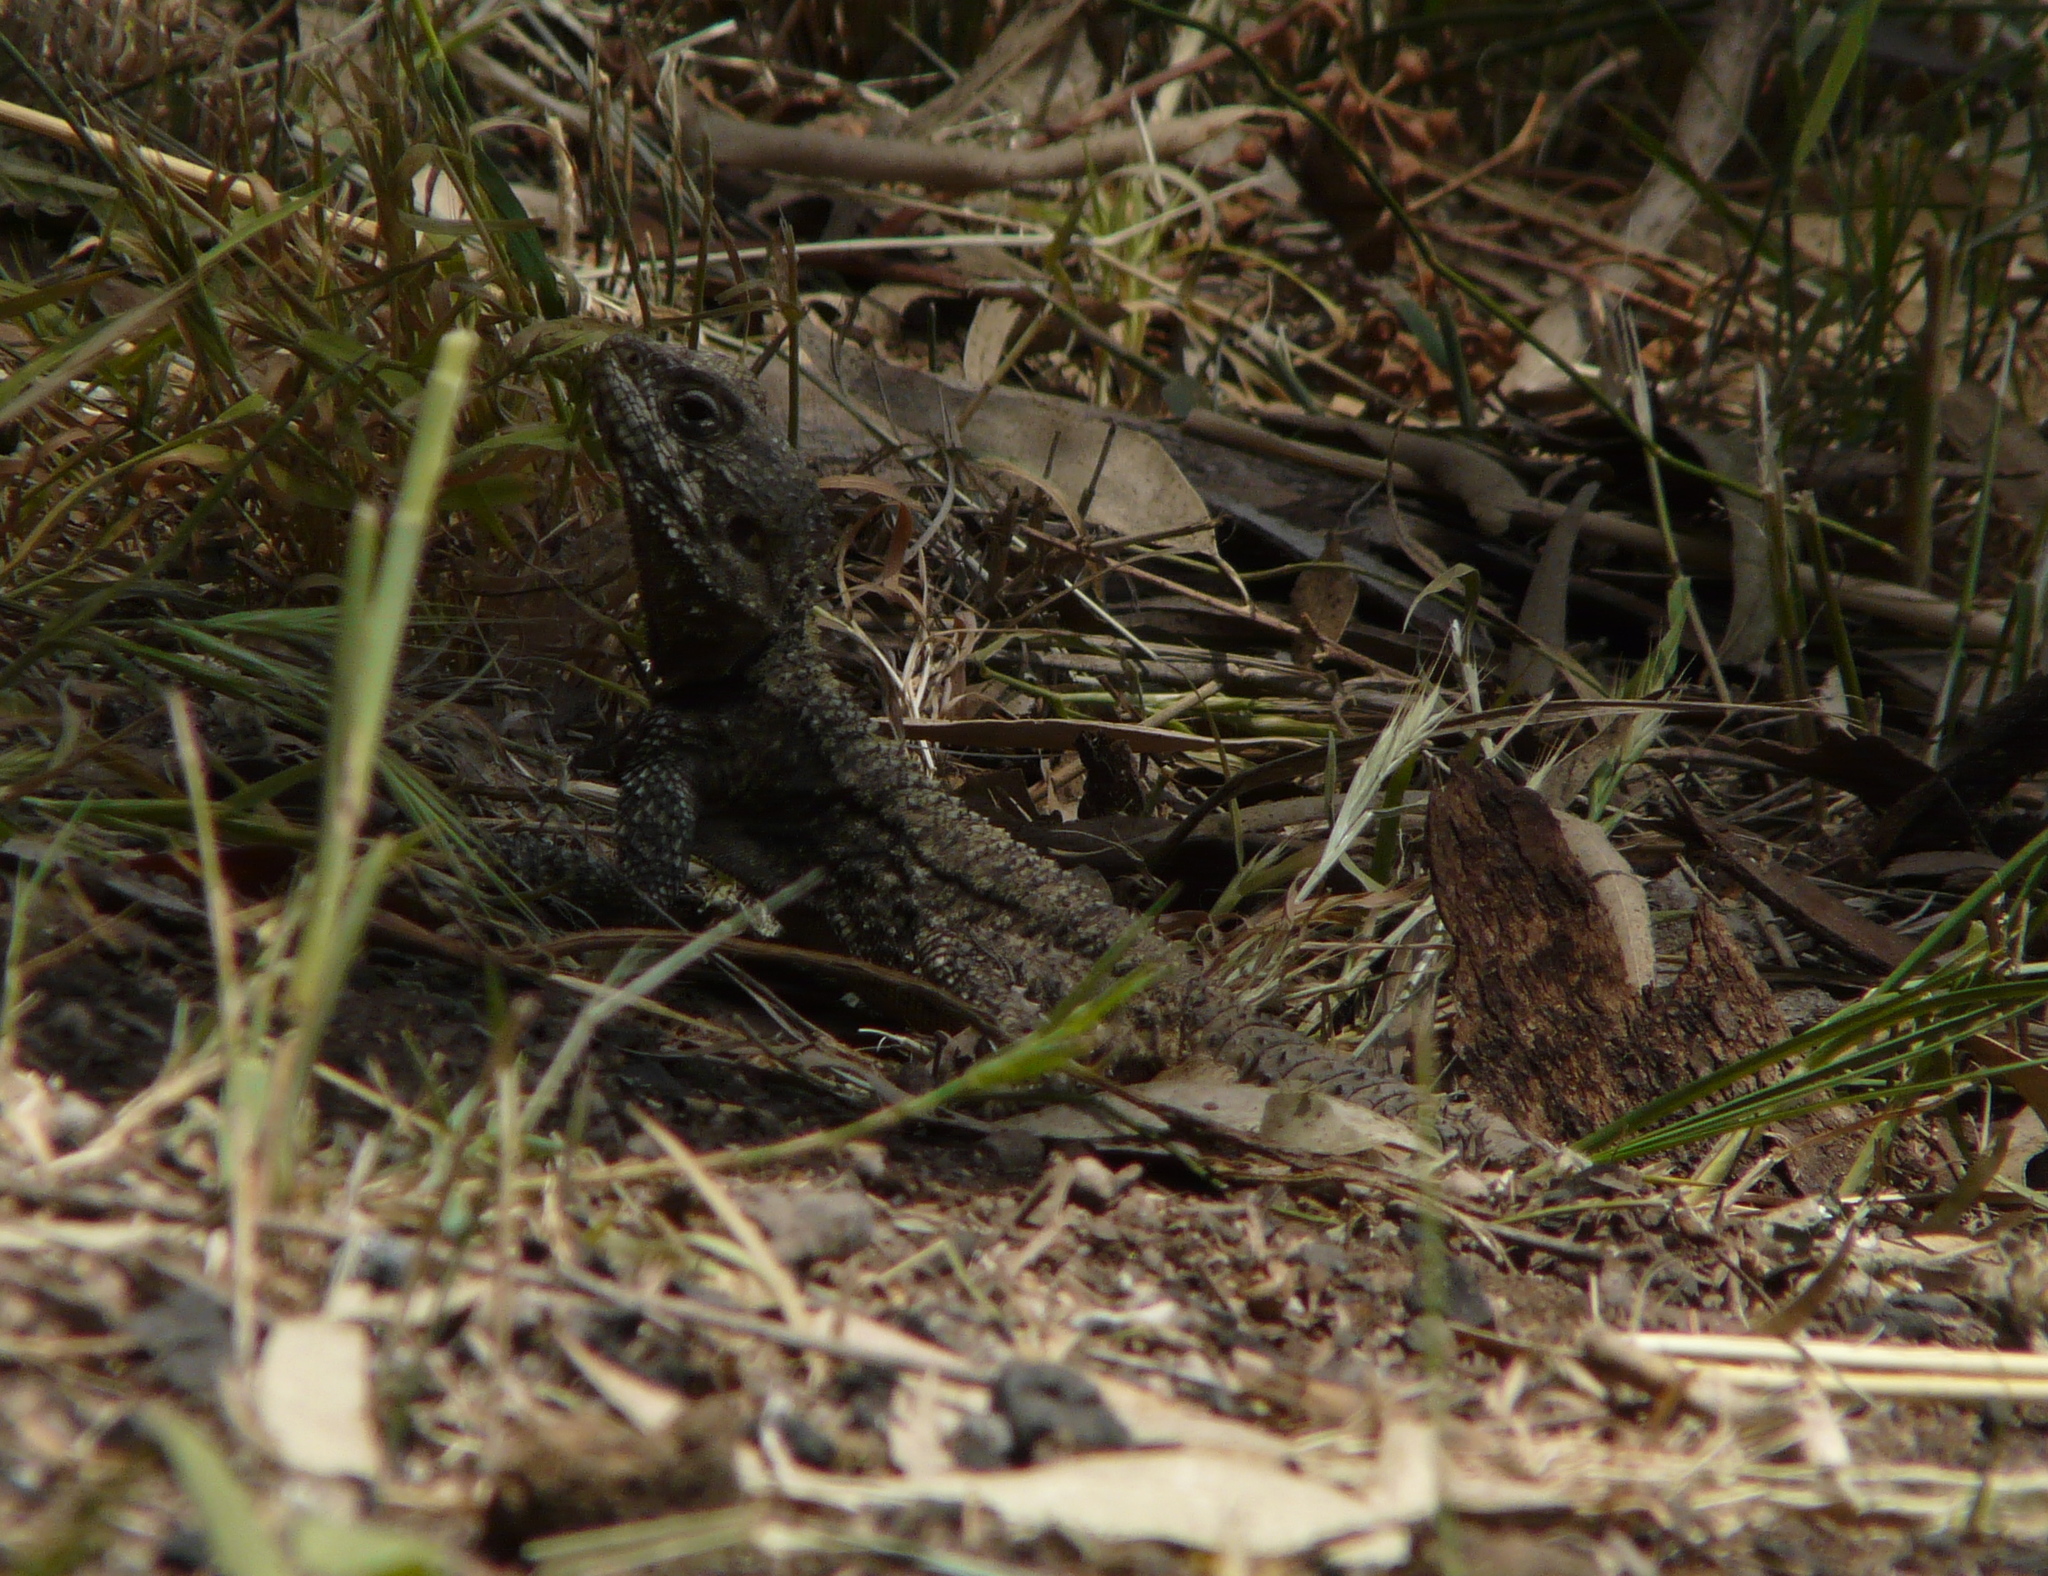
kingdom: Animalia
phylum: Chordata
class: Squamata
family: Agamidae
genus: Laudakia
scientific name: Laudakia vulgaris
